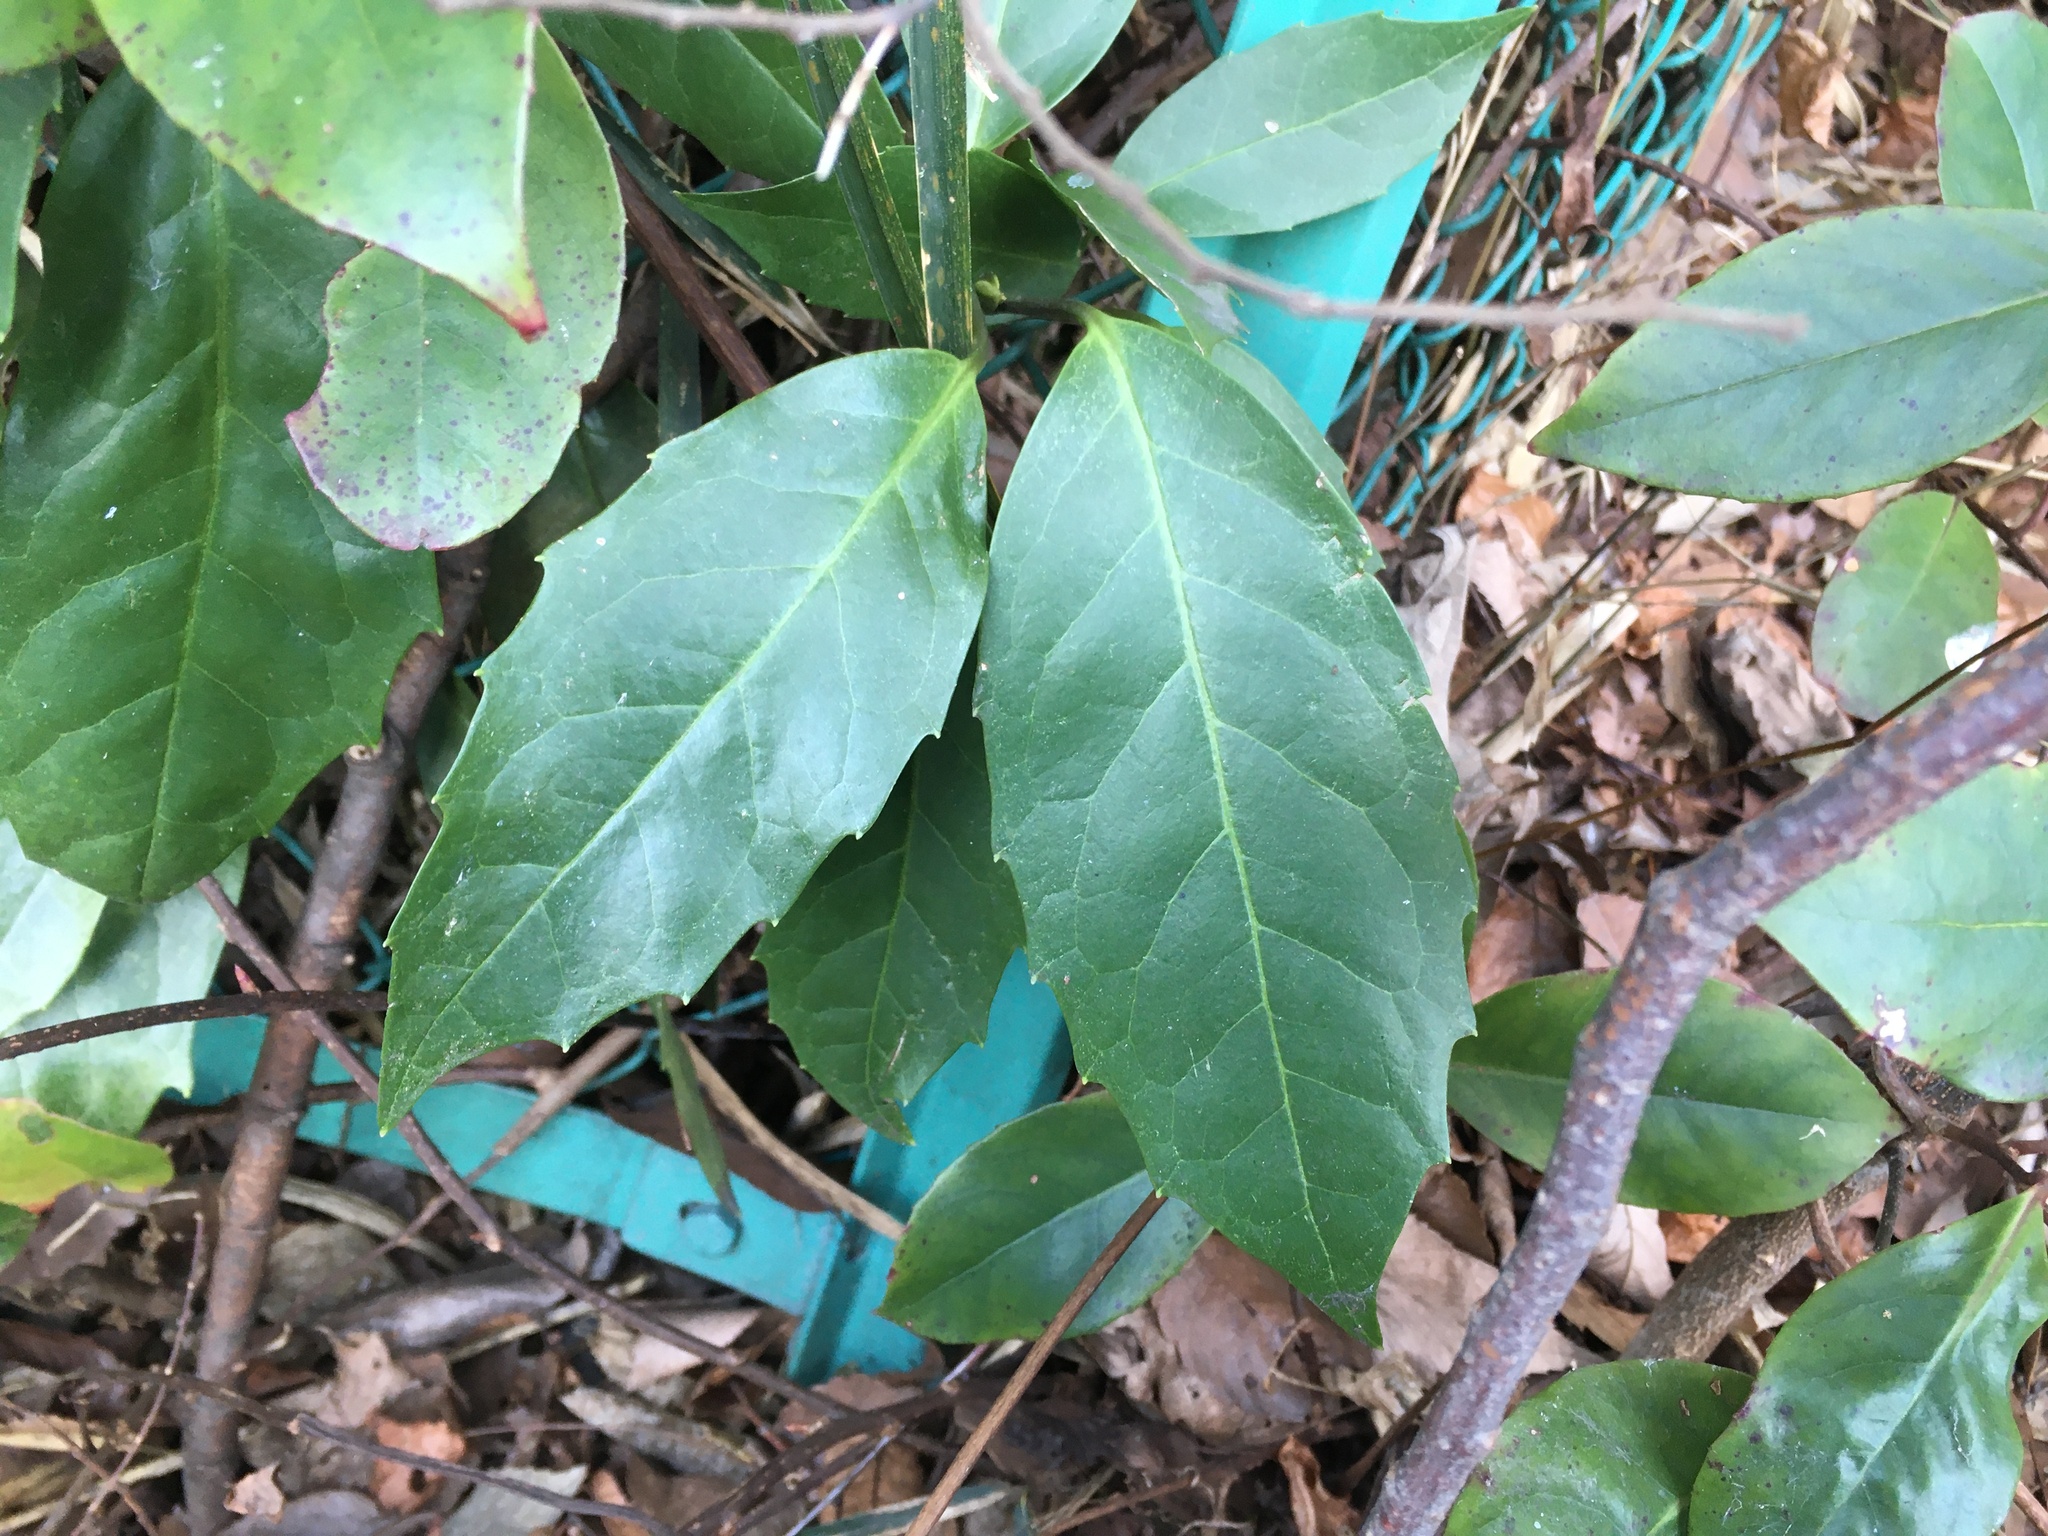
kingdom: Plantae
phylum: Tracheophyta
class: Magnoliopsida
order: Garryales
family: Garryaceae
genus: Aucuba
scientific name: Aucuba japonica
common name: Spotted-laurel
